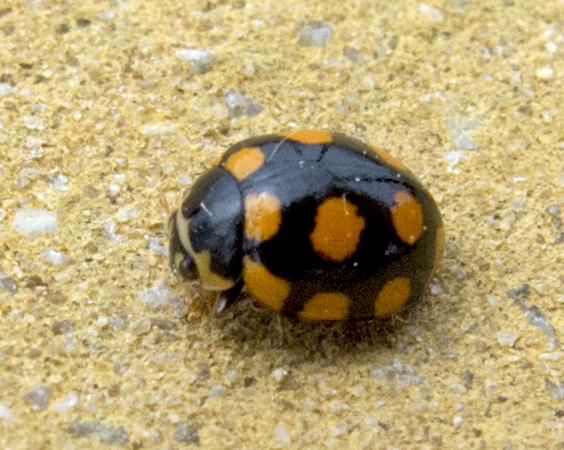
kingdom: Animalia
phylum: Arthropoda
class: Insecta
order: Coleoptera
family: Coccinellidae
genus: Coccinula
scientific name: Coccinula quatuordecimpustulata
